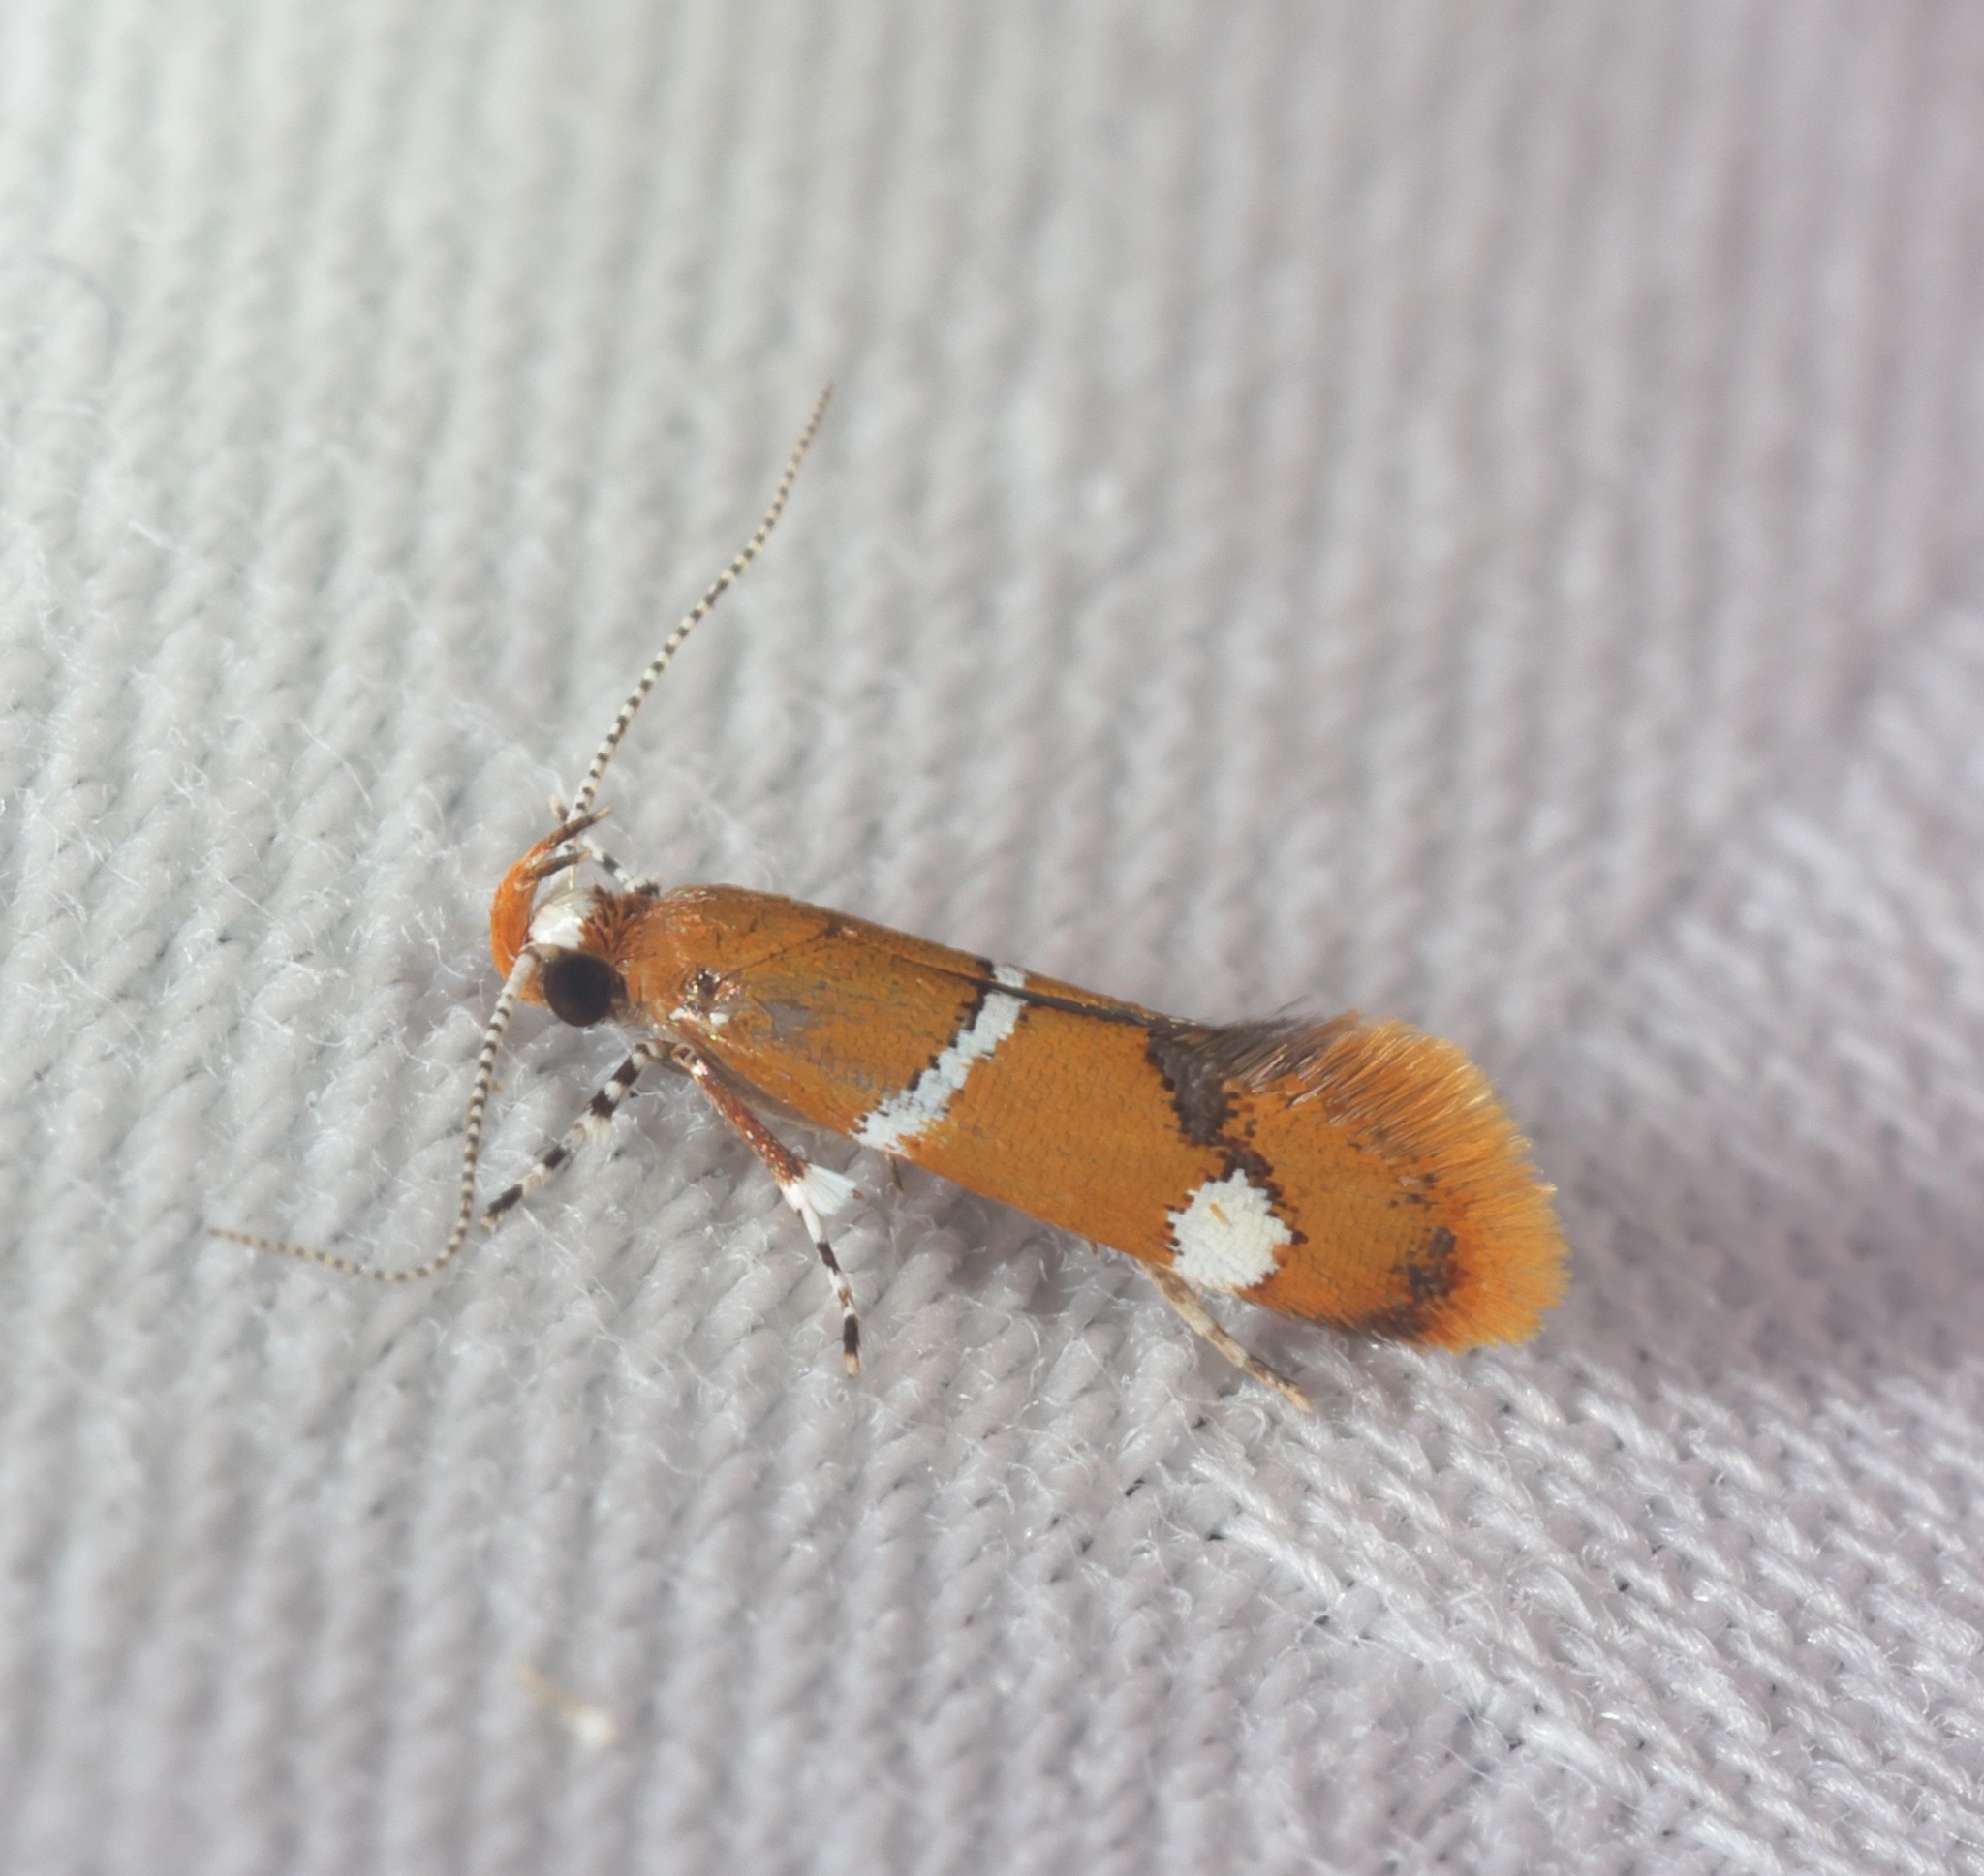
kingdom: Animalia
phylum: Arthropoda
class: Insecta
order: Lepidoptera
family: Oecophoridae
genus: Promalactis
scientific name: Promalactis albisquama
